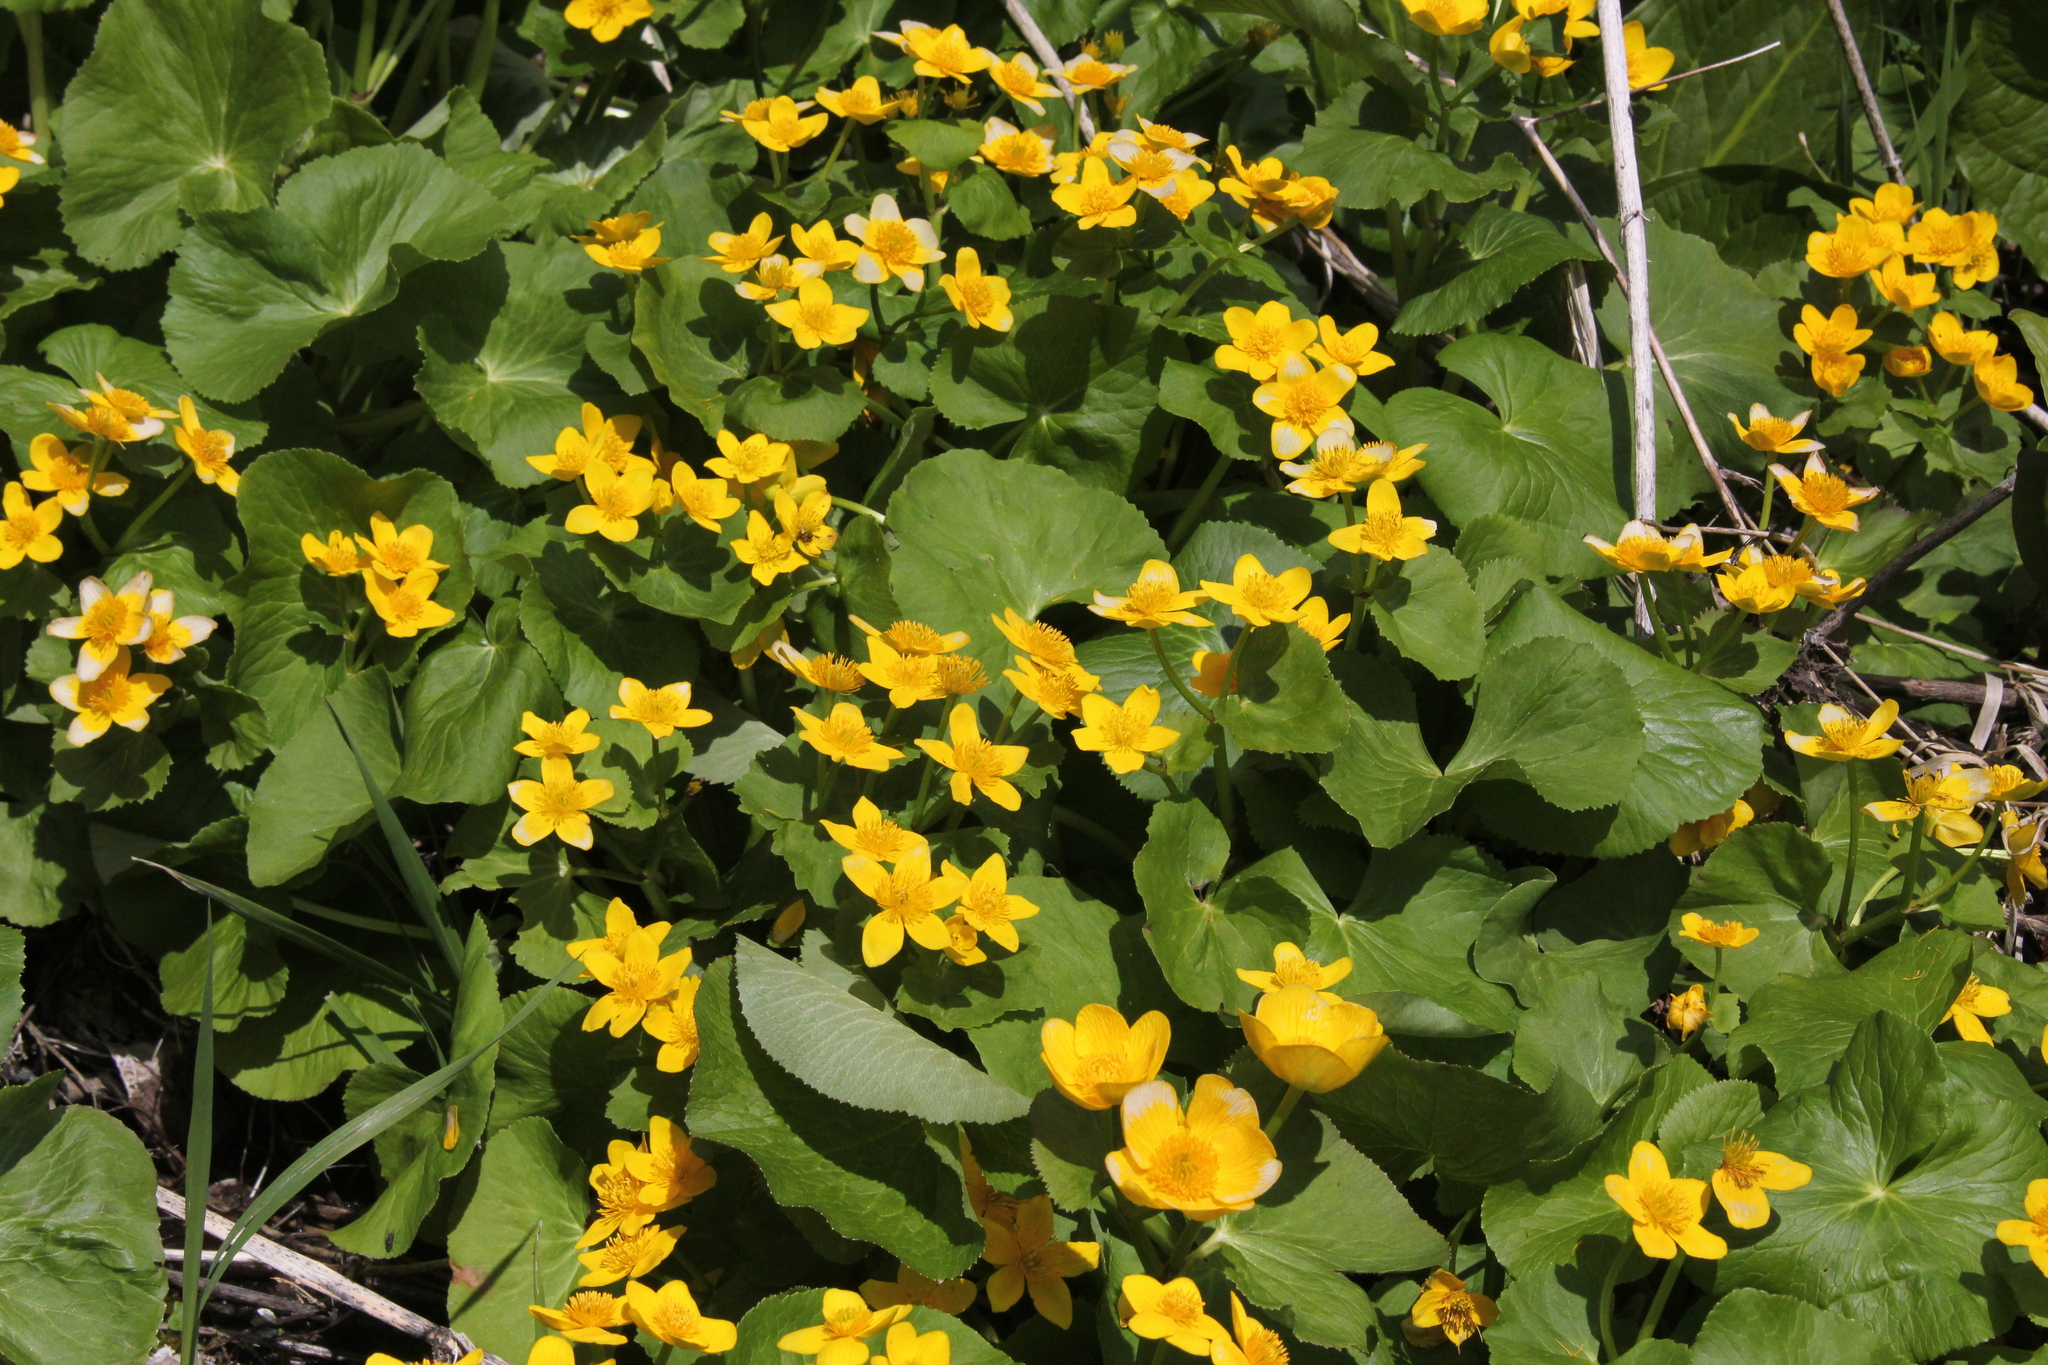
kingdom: Plantae
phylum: Tracheophyta
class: Magnoliopsida
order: Ranunculales
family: Ranunculaceae
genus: Caltha
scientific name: Caltha palustris
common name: Marsh marigold
